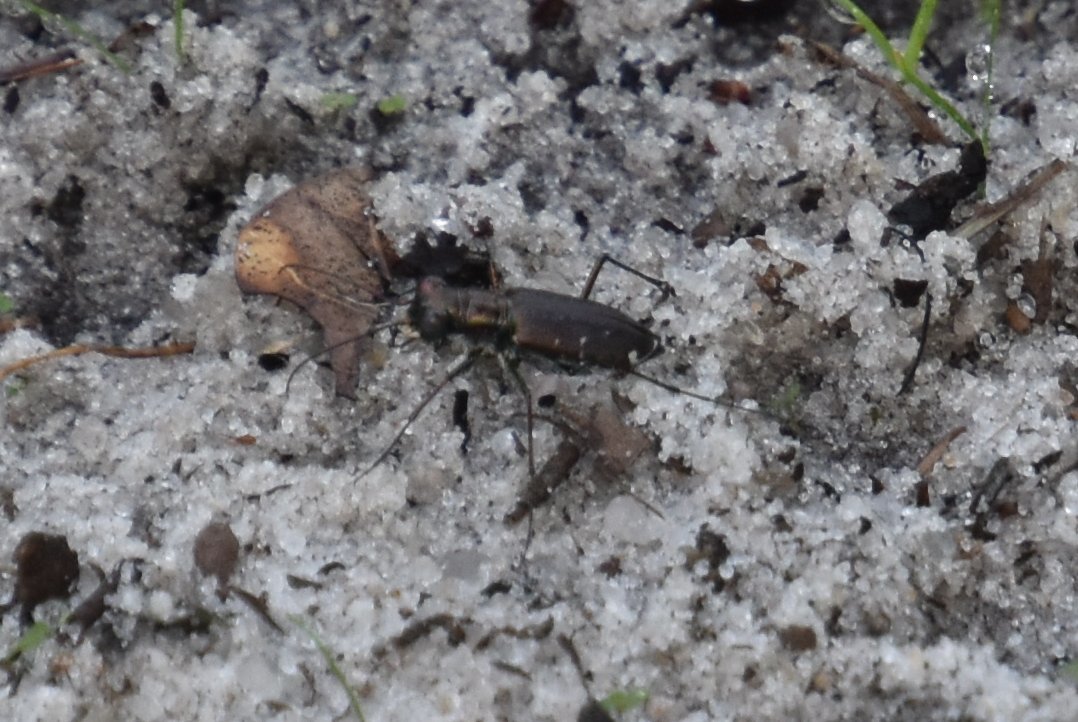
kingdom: Animalia
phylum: Arthropoda
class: Insecta
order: Coleoptera
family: Carabidae
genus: Cicindela
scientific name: Cicindela punctulata
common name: Punctured tiger beetle
